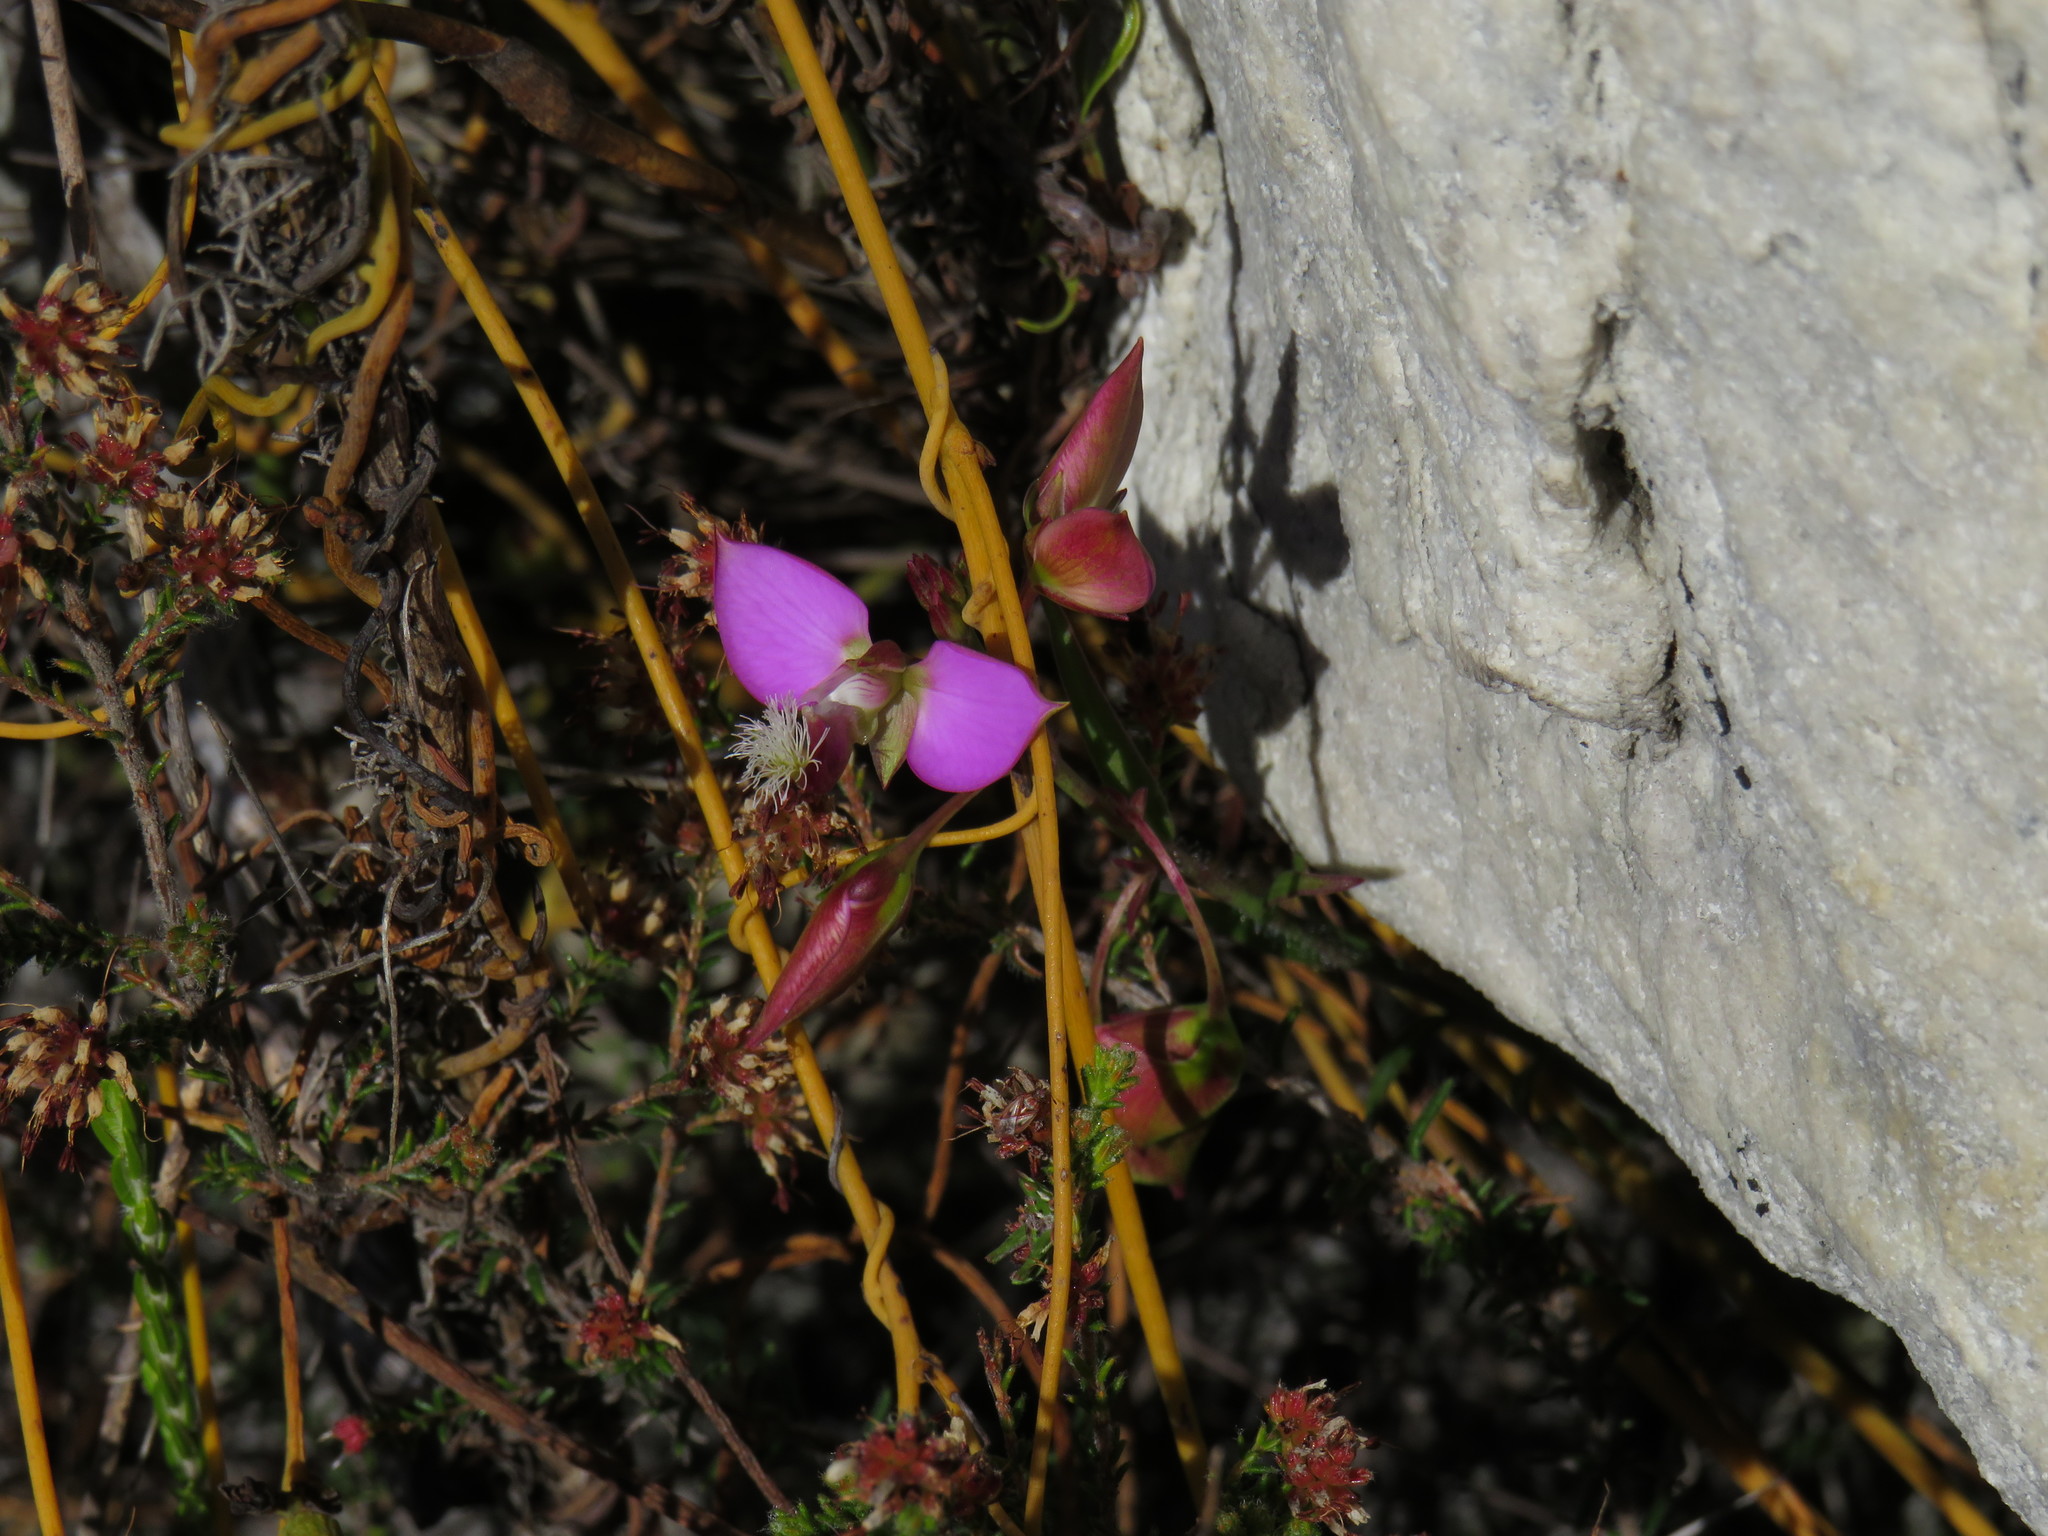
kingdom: Plantae
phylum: Tracheophyta
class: Magnoliopsida
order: Fabales
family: Polygalaceae
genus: Polygala
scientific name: Polygala bracteolata
